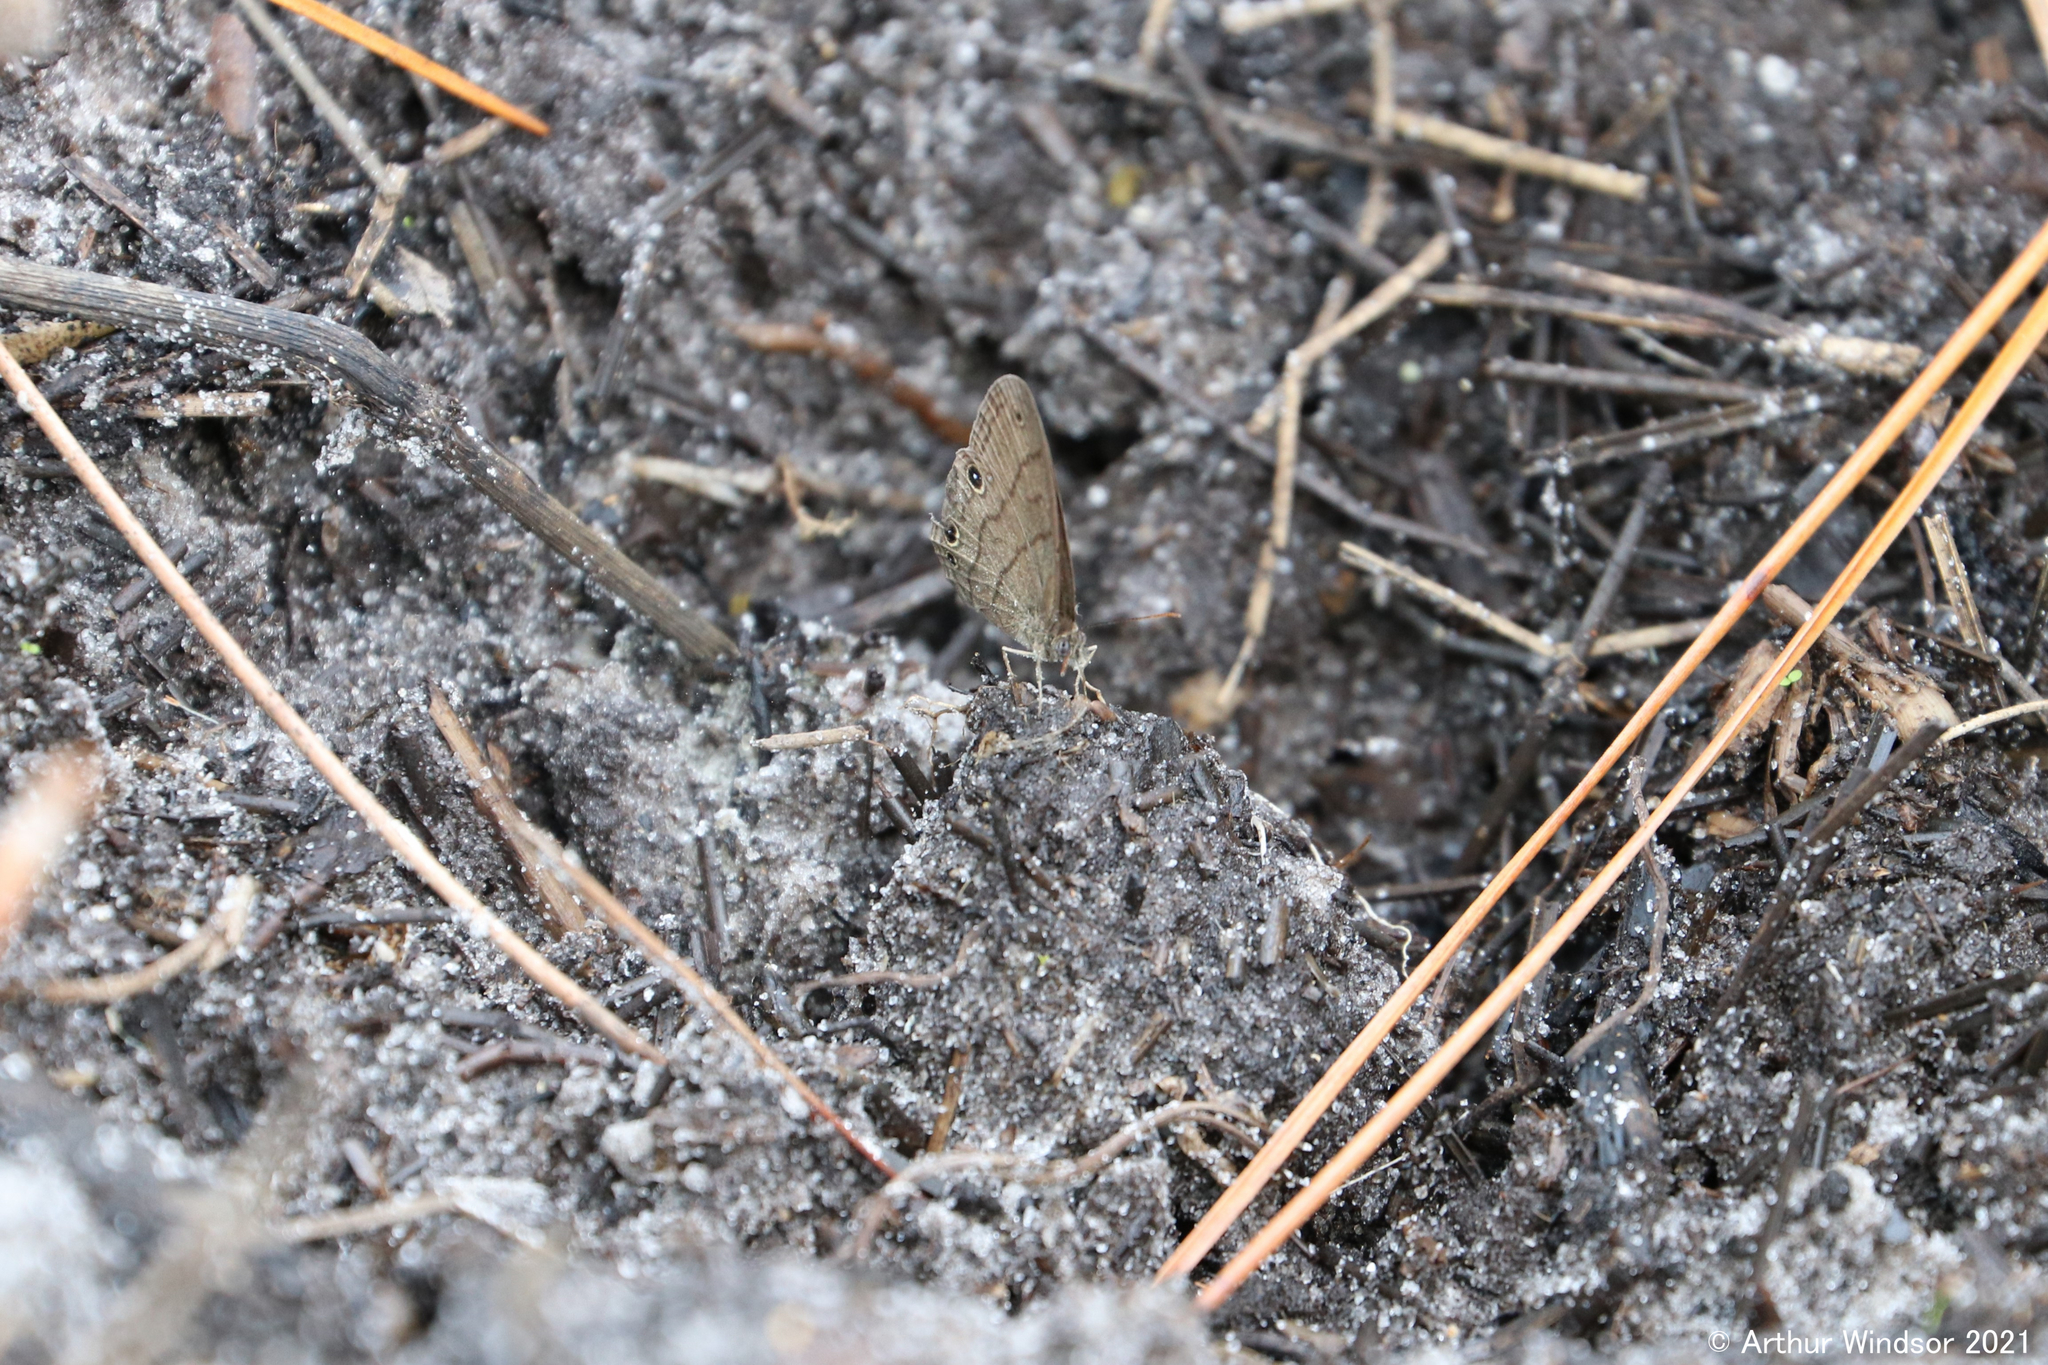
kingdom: Animalia
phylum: Arthropoda
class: Insecta
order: Lepidoptera
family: Nymphalidae
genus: Hermeuptychia
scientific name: Hermeuptychia hermes
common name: Hermes satyr
